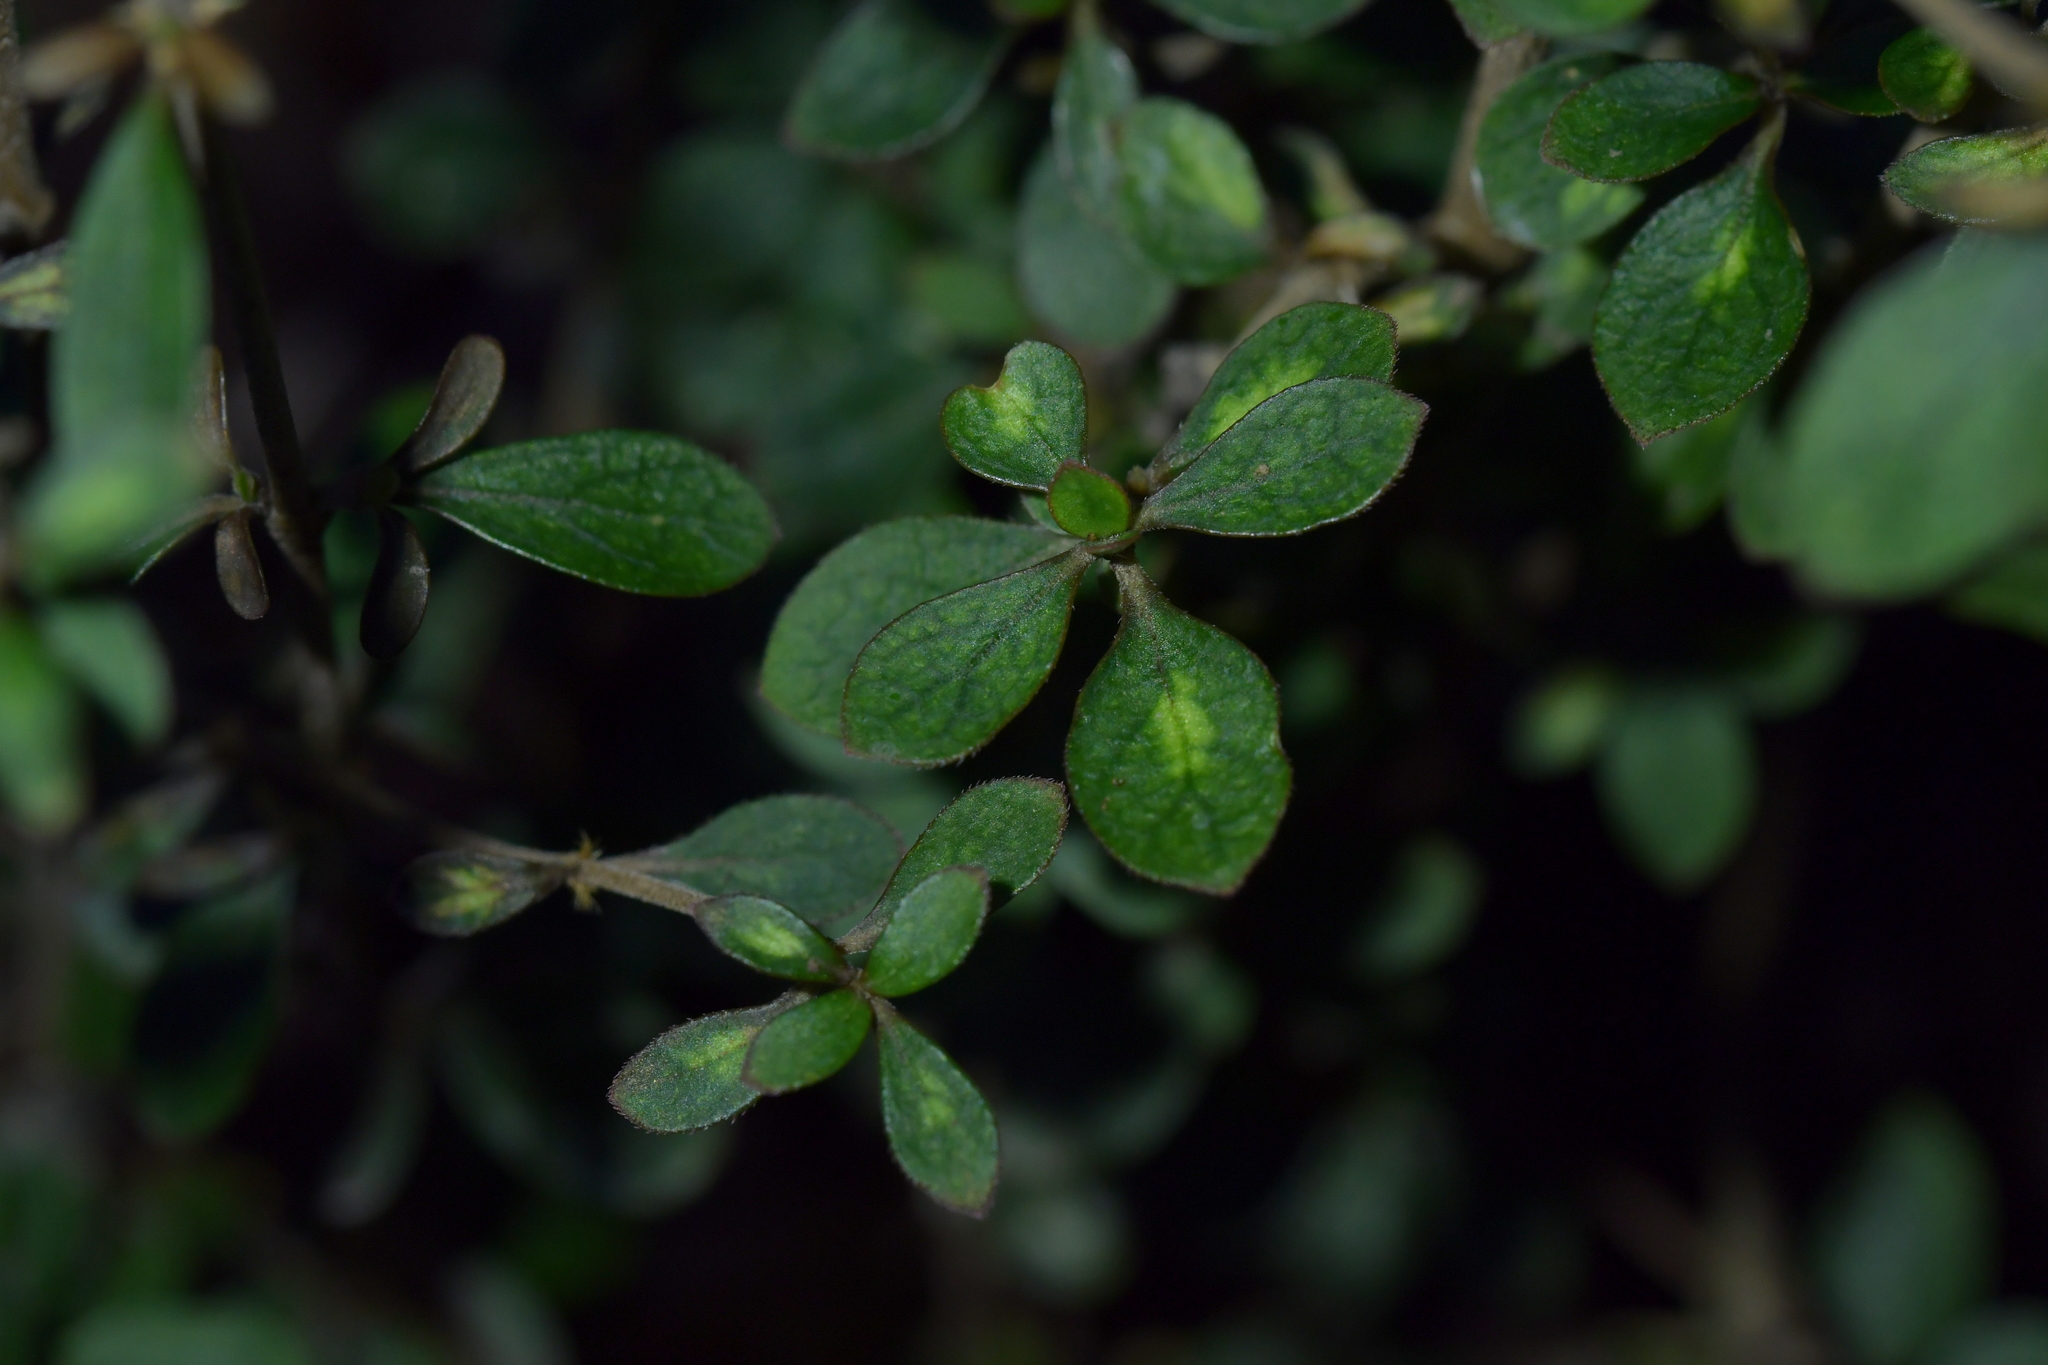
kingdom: Plantae
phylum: Tracheophyta
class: Magnoliopsida
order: Gentianales
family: Rubiaceae
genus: Coprosma
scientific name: Coprosma dumosa
